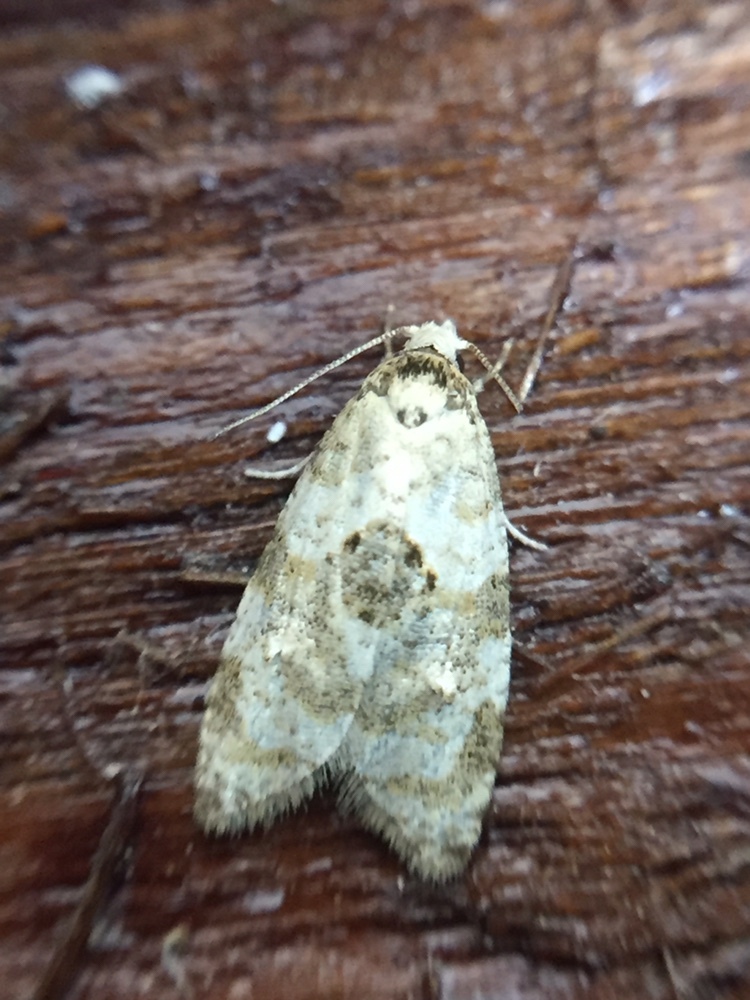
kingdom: Animalia
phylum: Arthropoda
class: Insecta
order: Lepidoptera
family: Tortricidae
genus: Dipterina
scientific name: Dipterina imbriferana
